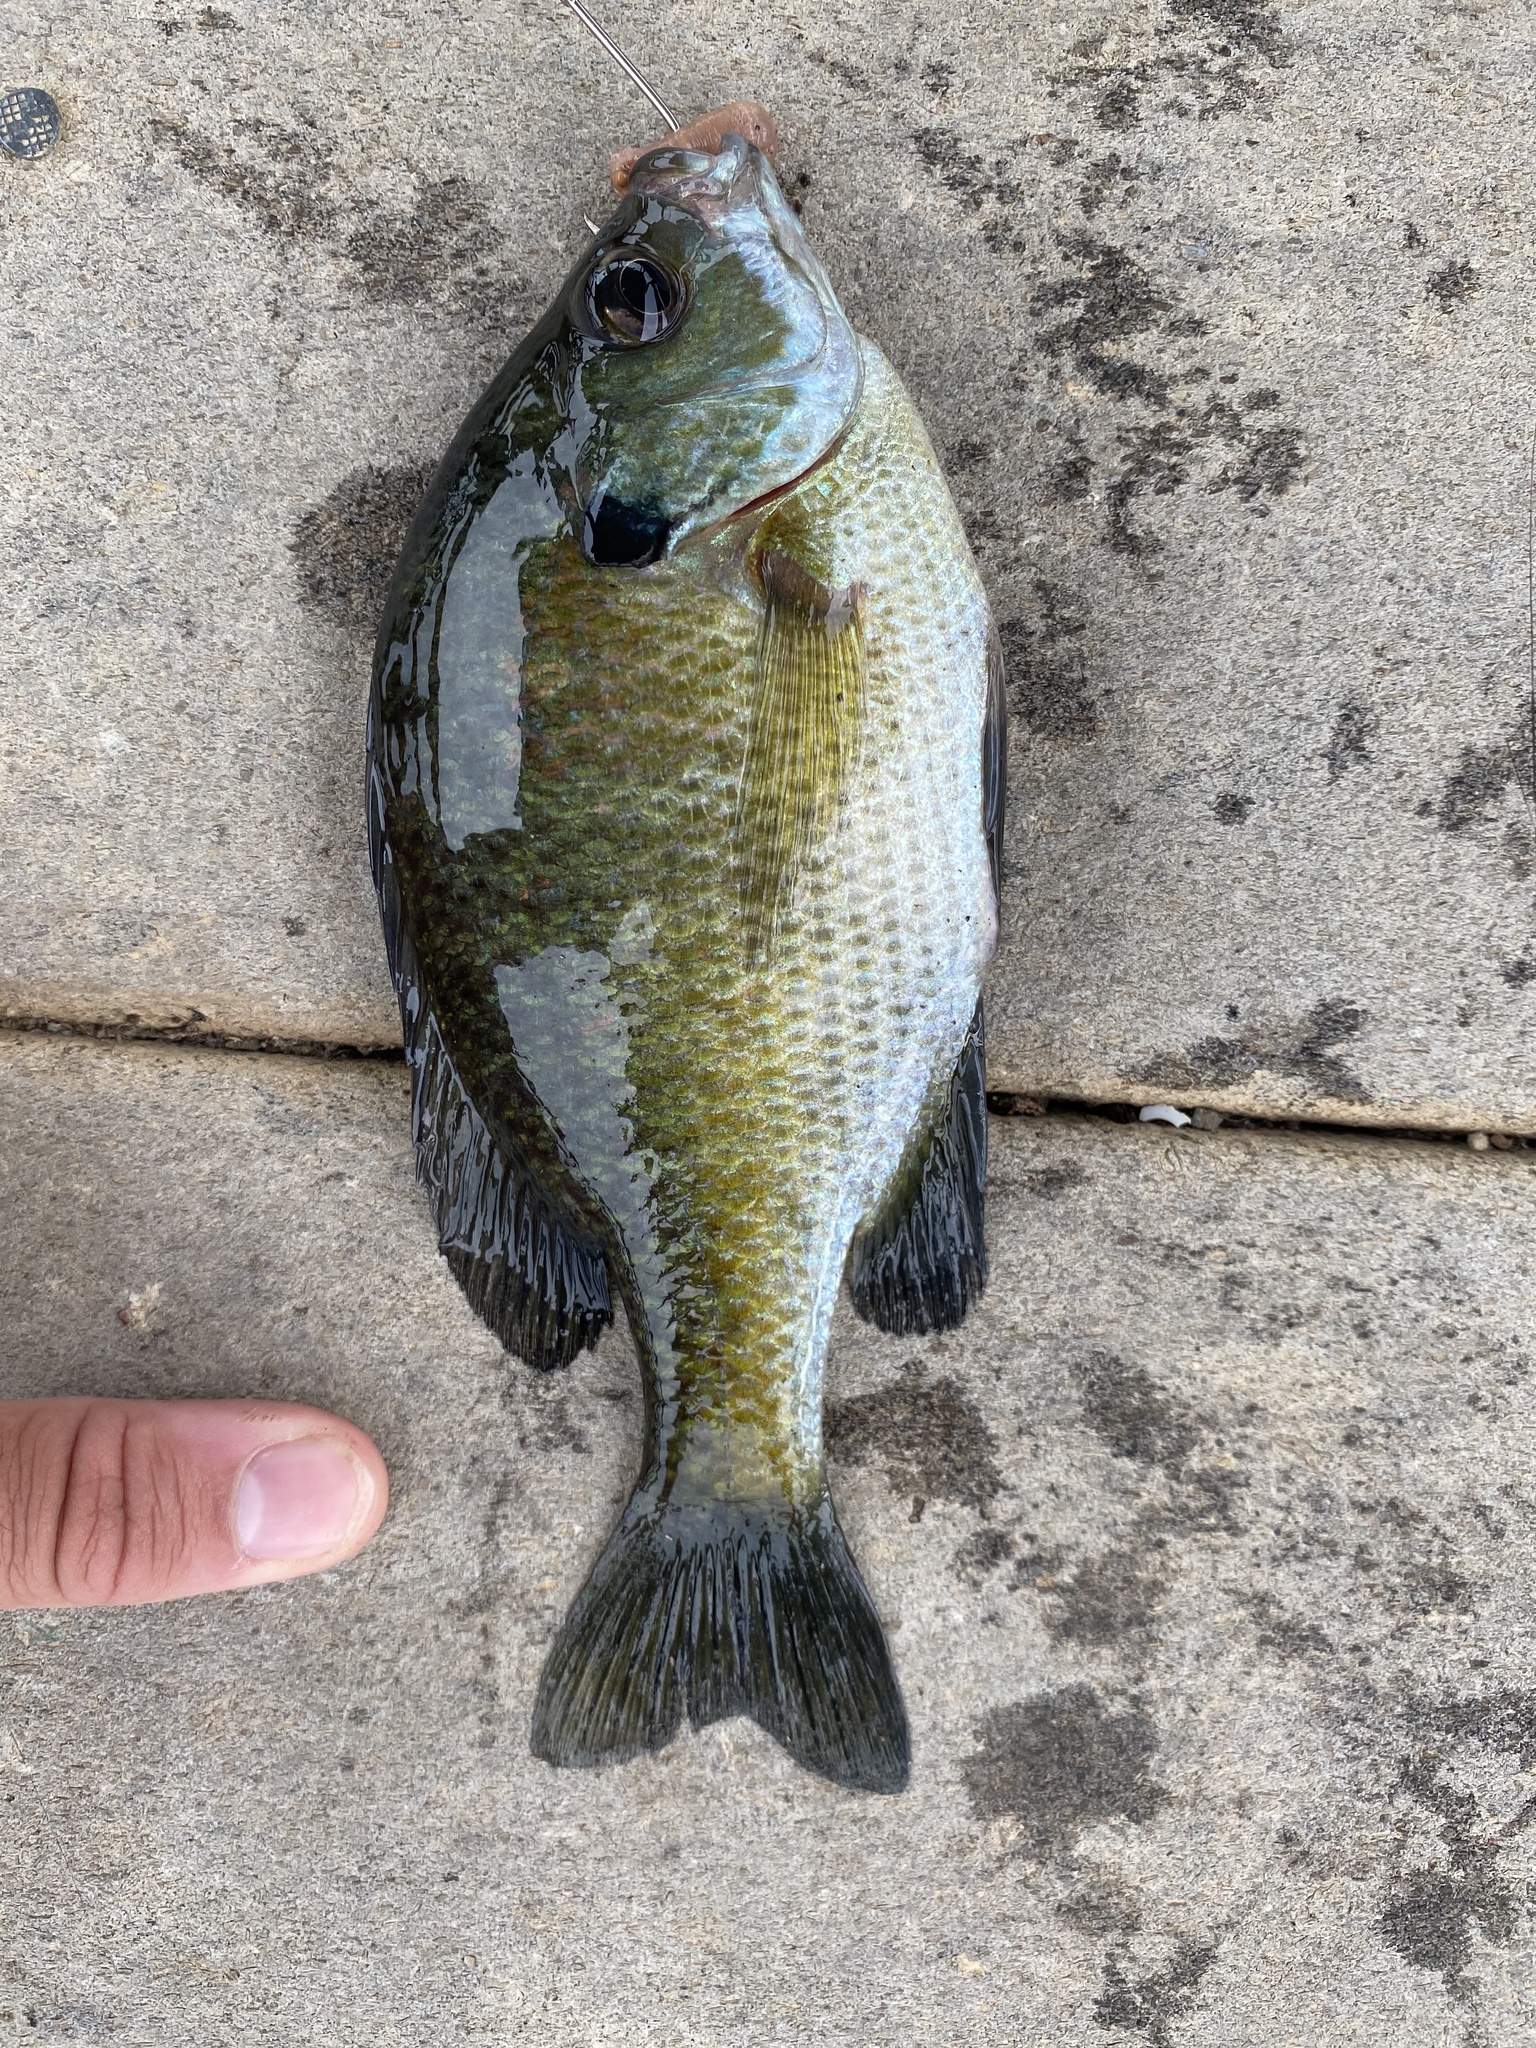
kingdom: Animalia
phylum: Chordata
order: Perciformes
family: Centrarchidae
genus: Lepomis
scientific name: Lepomis macrochirus
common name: Bluegill
